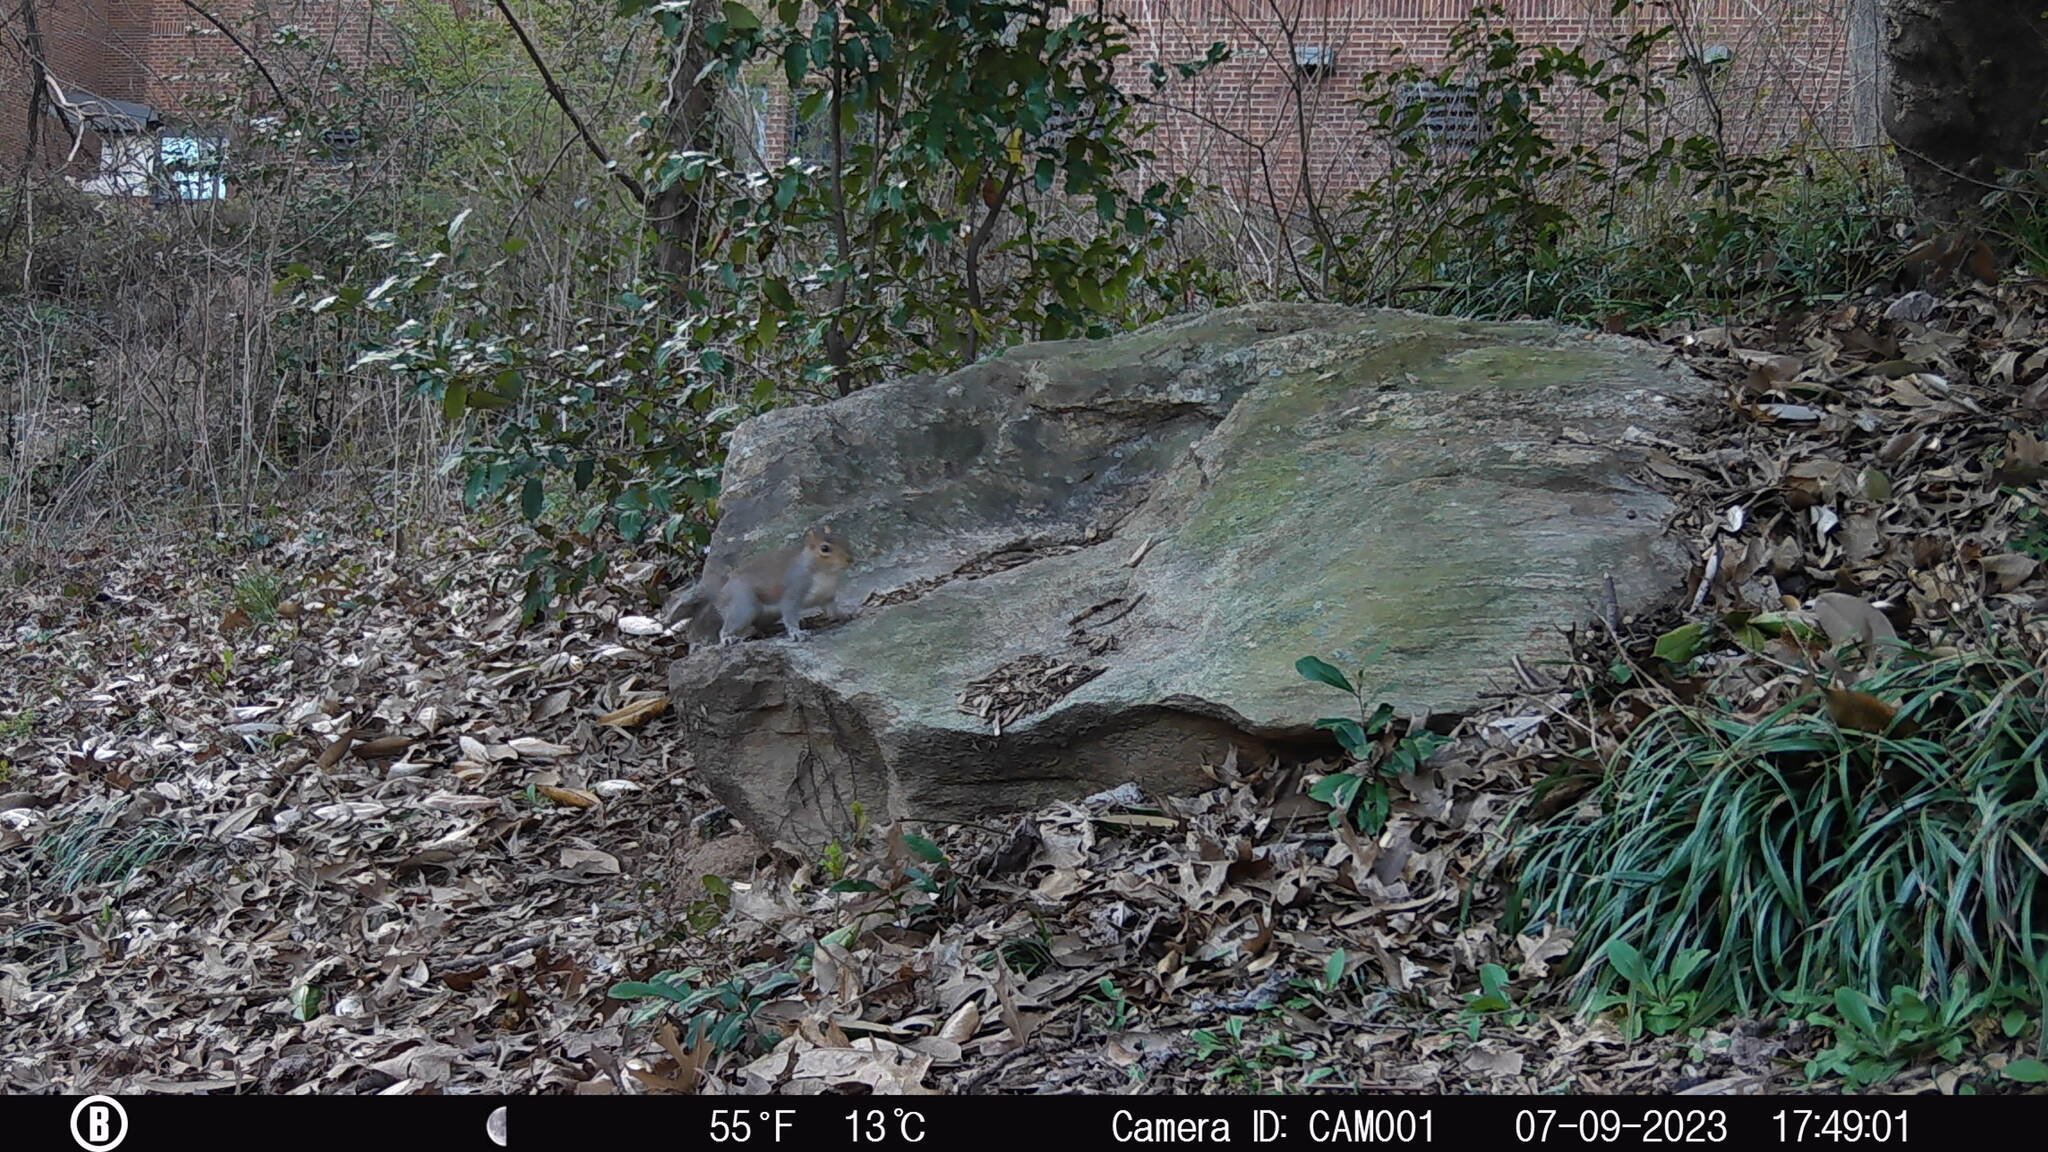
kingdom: Animalia
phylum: Chordata
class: Mammalia
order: Rodentia
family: Sciuridae
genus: Sciurus
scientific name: Sciurus carolinensis
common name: Eastern gray squirrel
